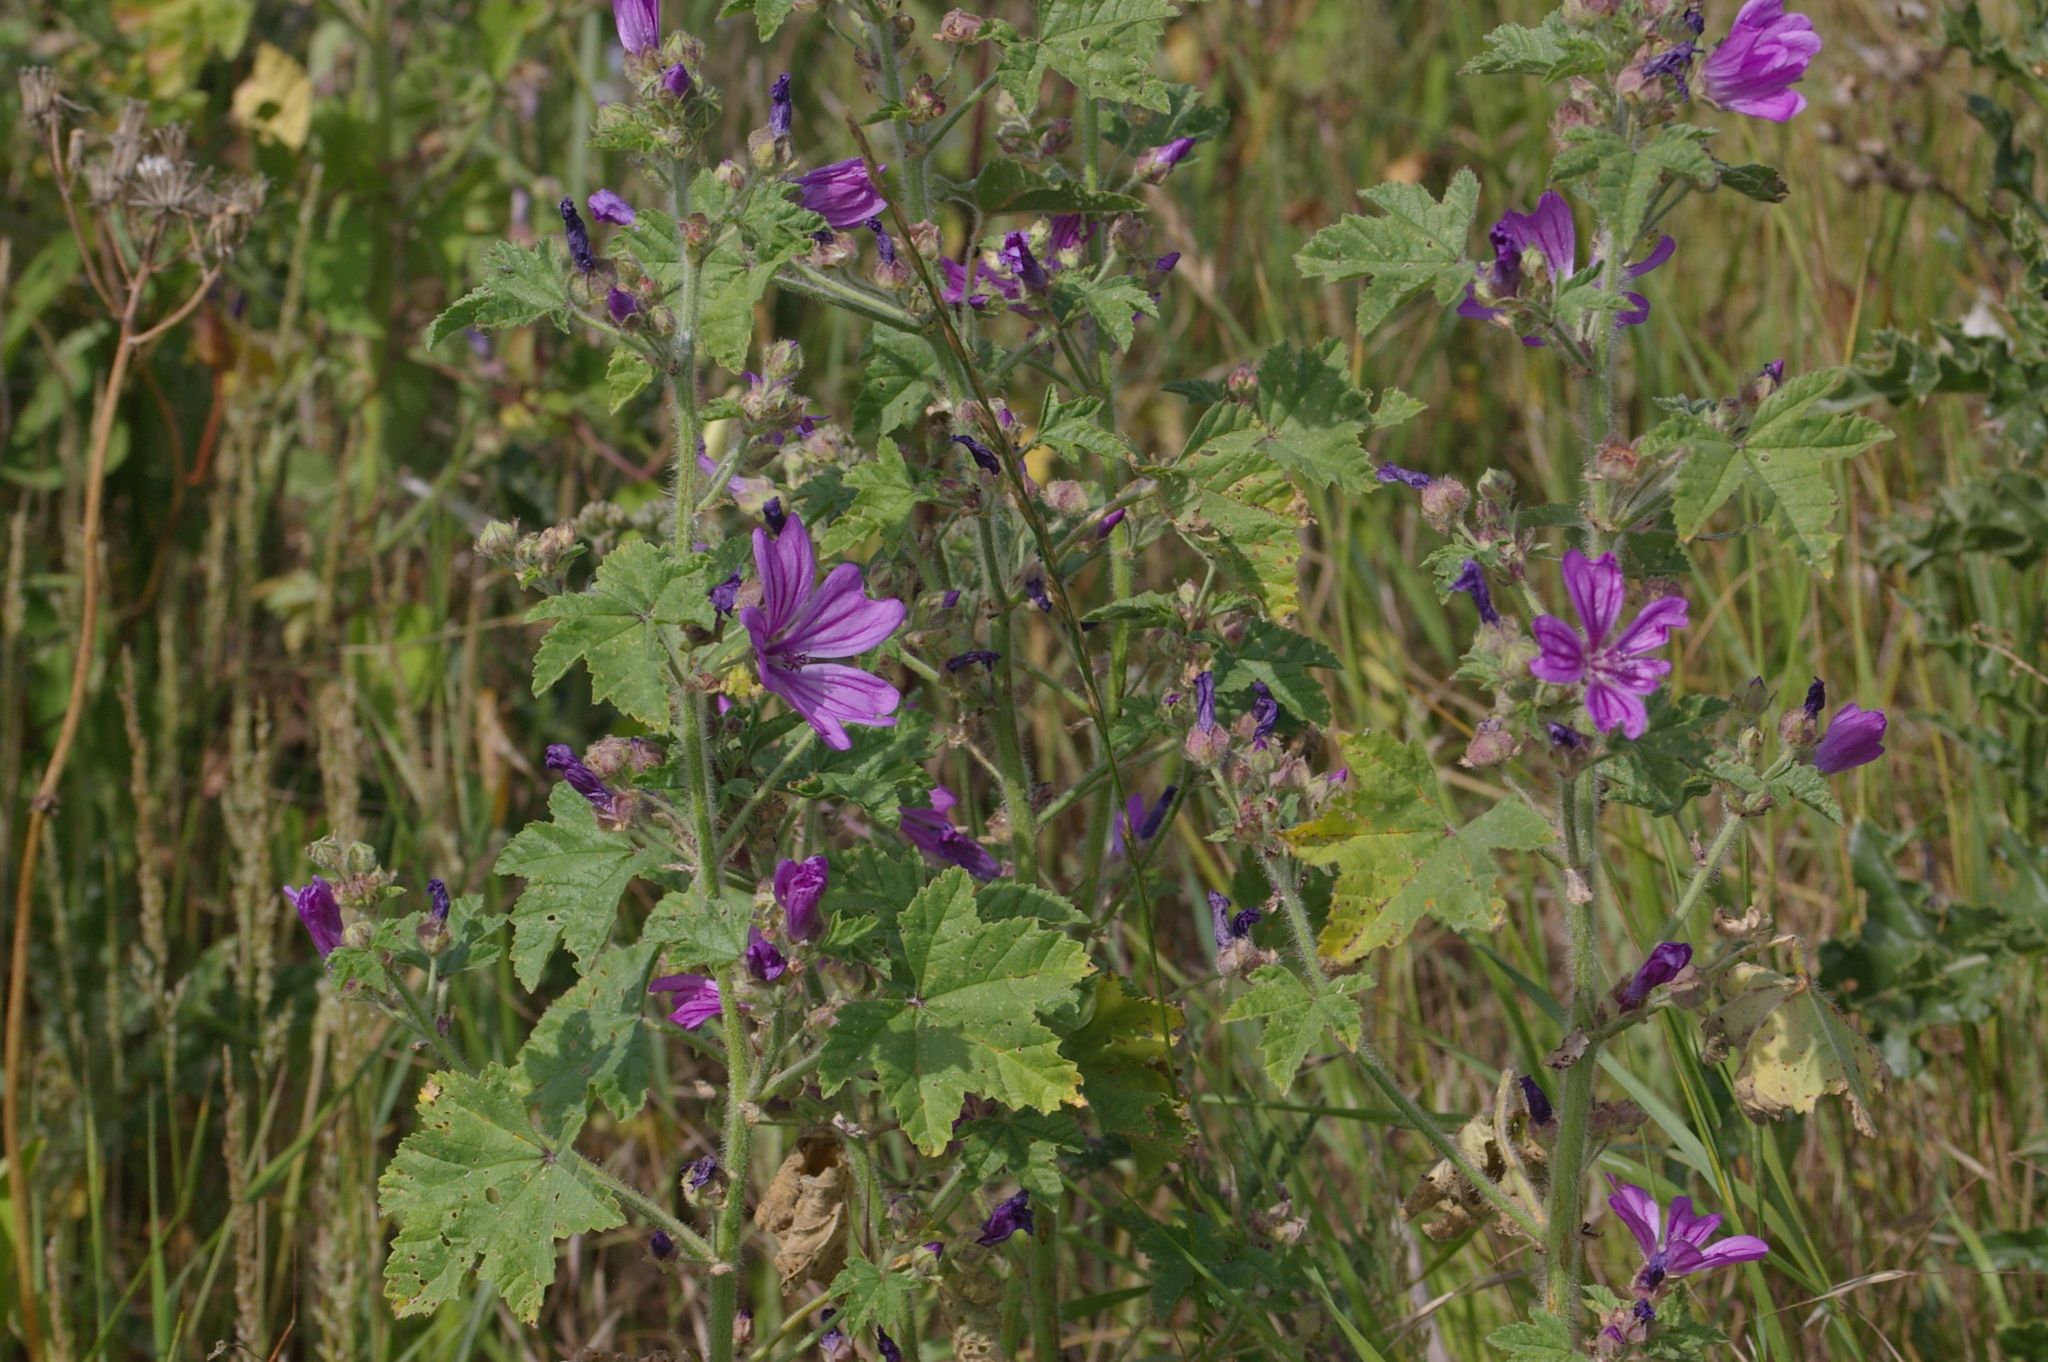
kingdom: Plantae
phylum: Tracheophyta
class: Magnoliopsida
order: Malvales
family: Malvaceae
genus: Malva
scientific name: Malva sylvestris
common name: Common mallow
